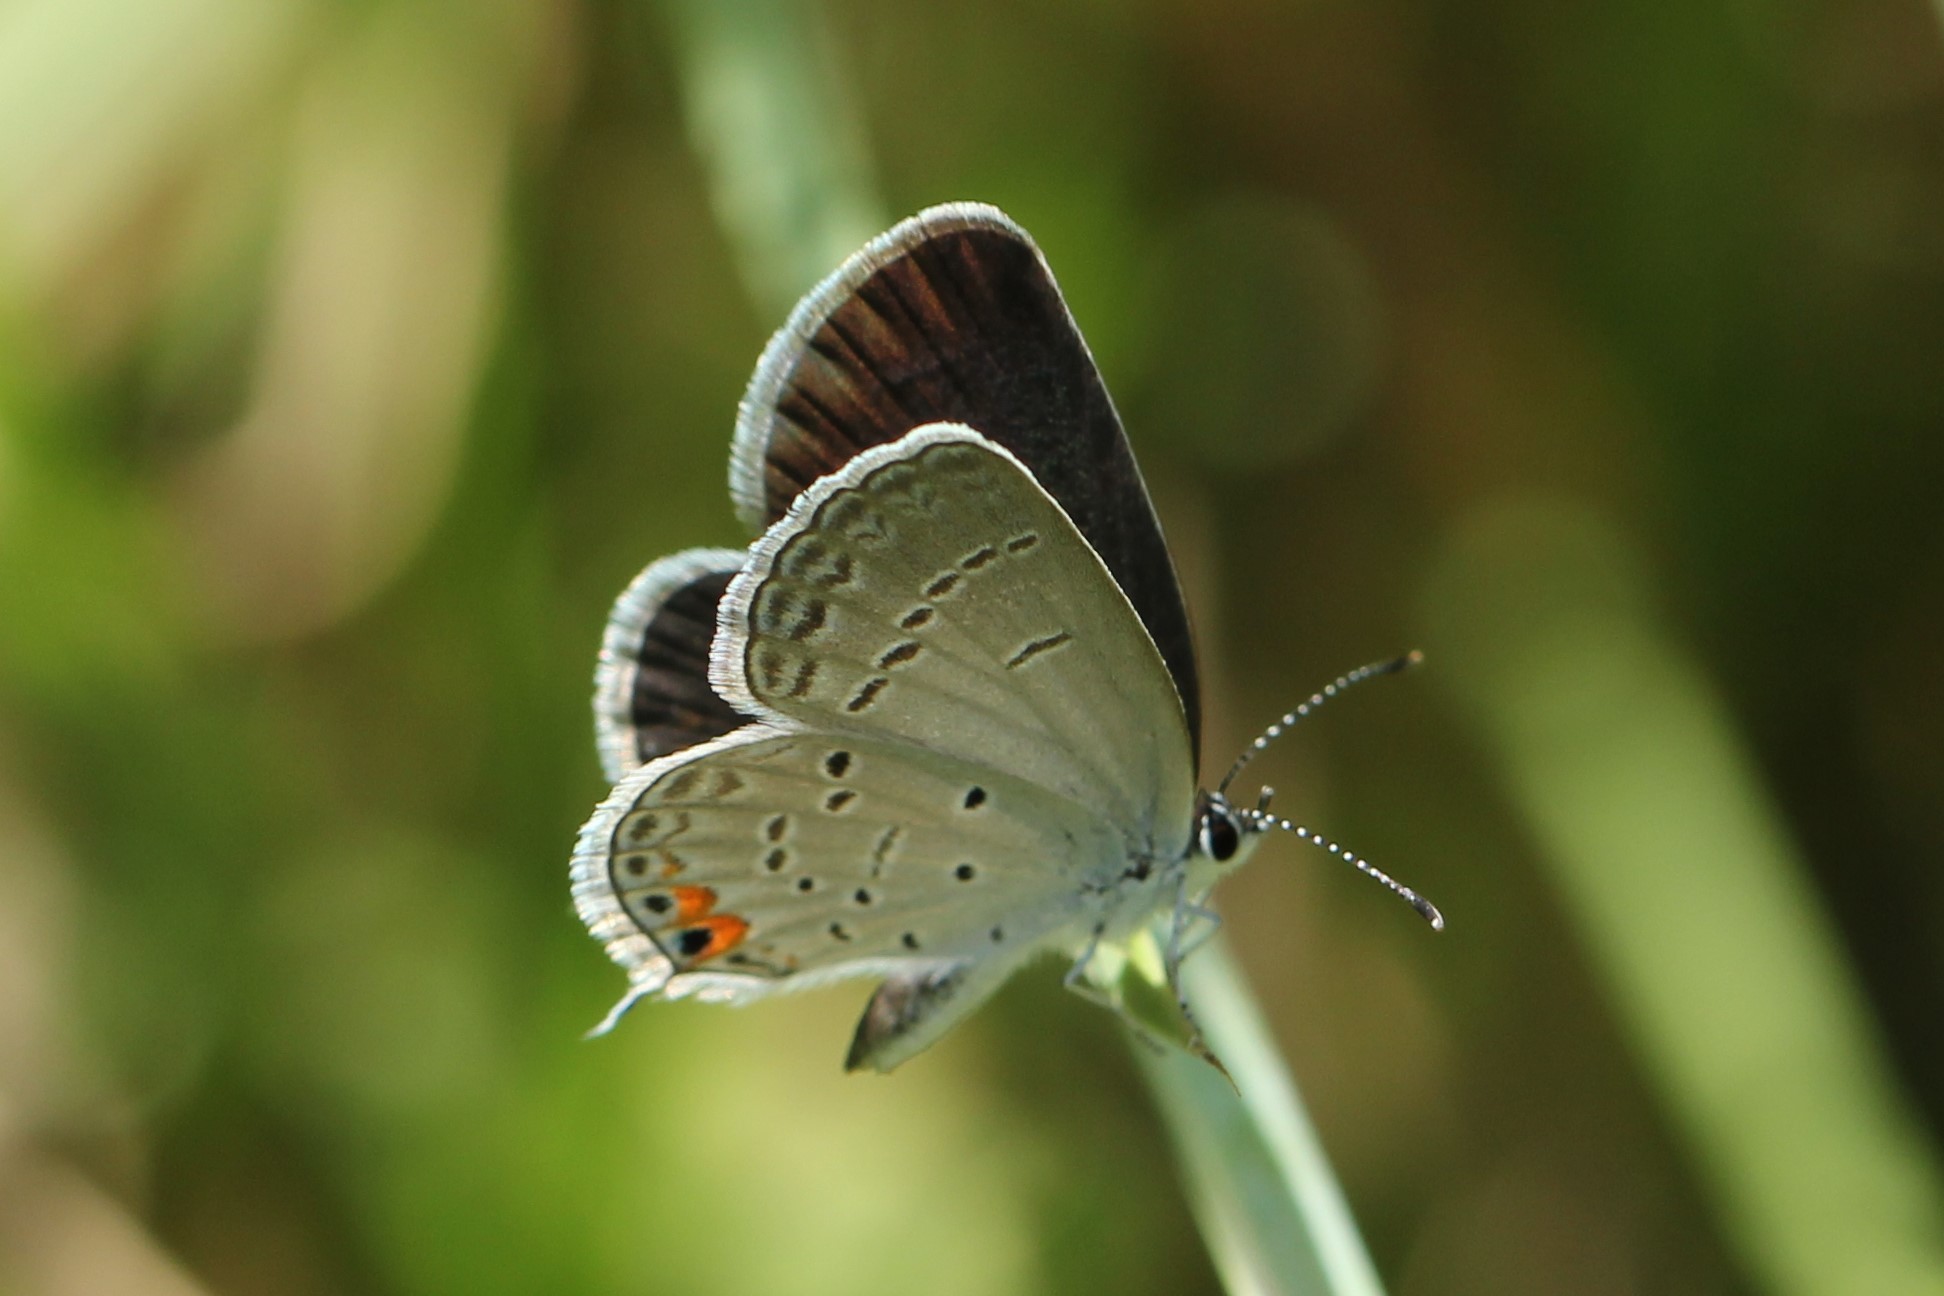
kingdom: Animalia
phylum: Arthropoda
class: Insecta
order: Lepidoptera
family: Lycaenidae
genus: Elkalyce
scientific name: Elkalyce comyntas
